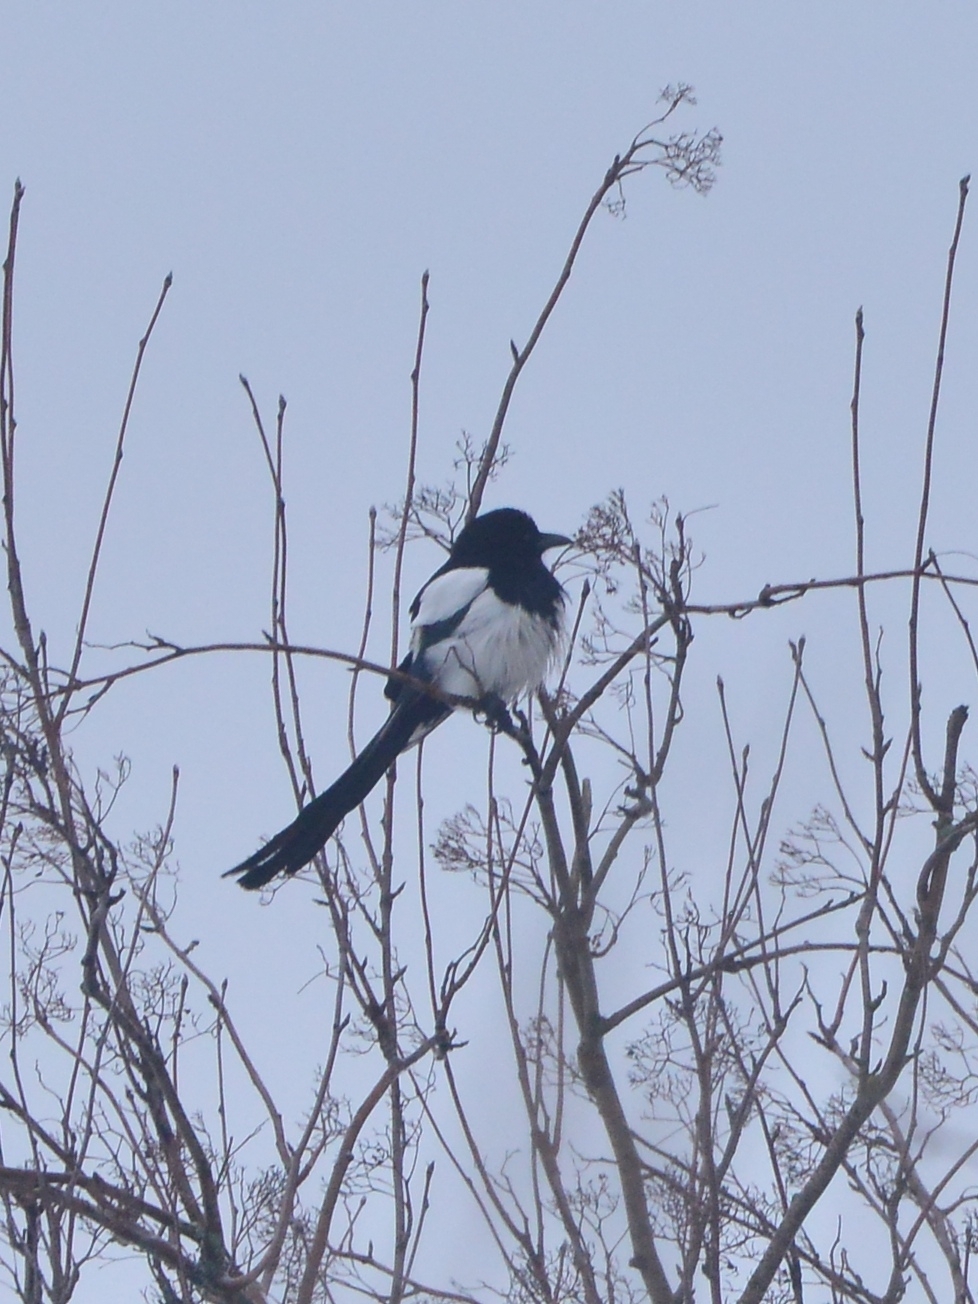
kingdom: Animalia
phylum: Chordata
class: Aves
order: Passeriformes
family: Corvidae
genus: Pica
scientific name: Pica pica
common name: Eurasian magpie
